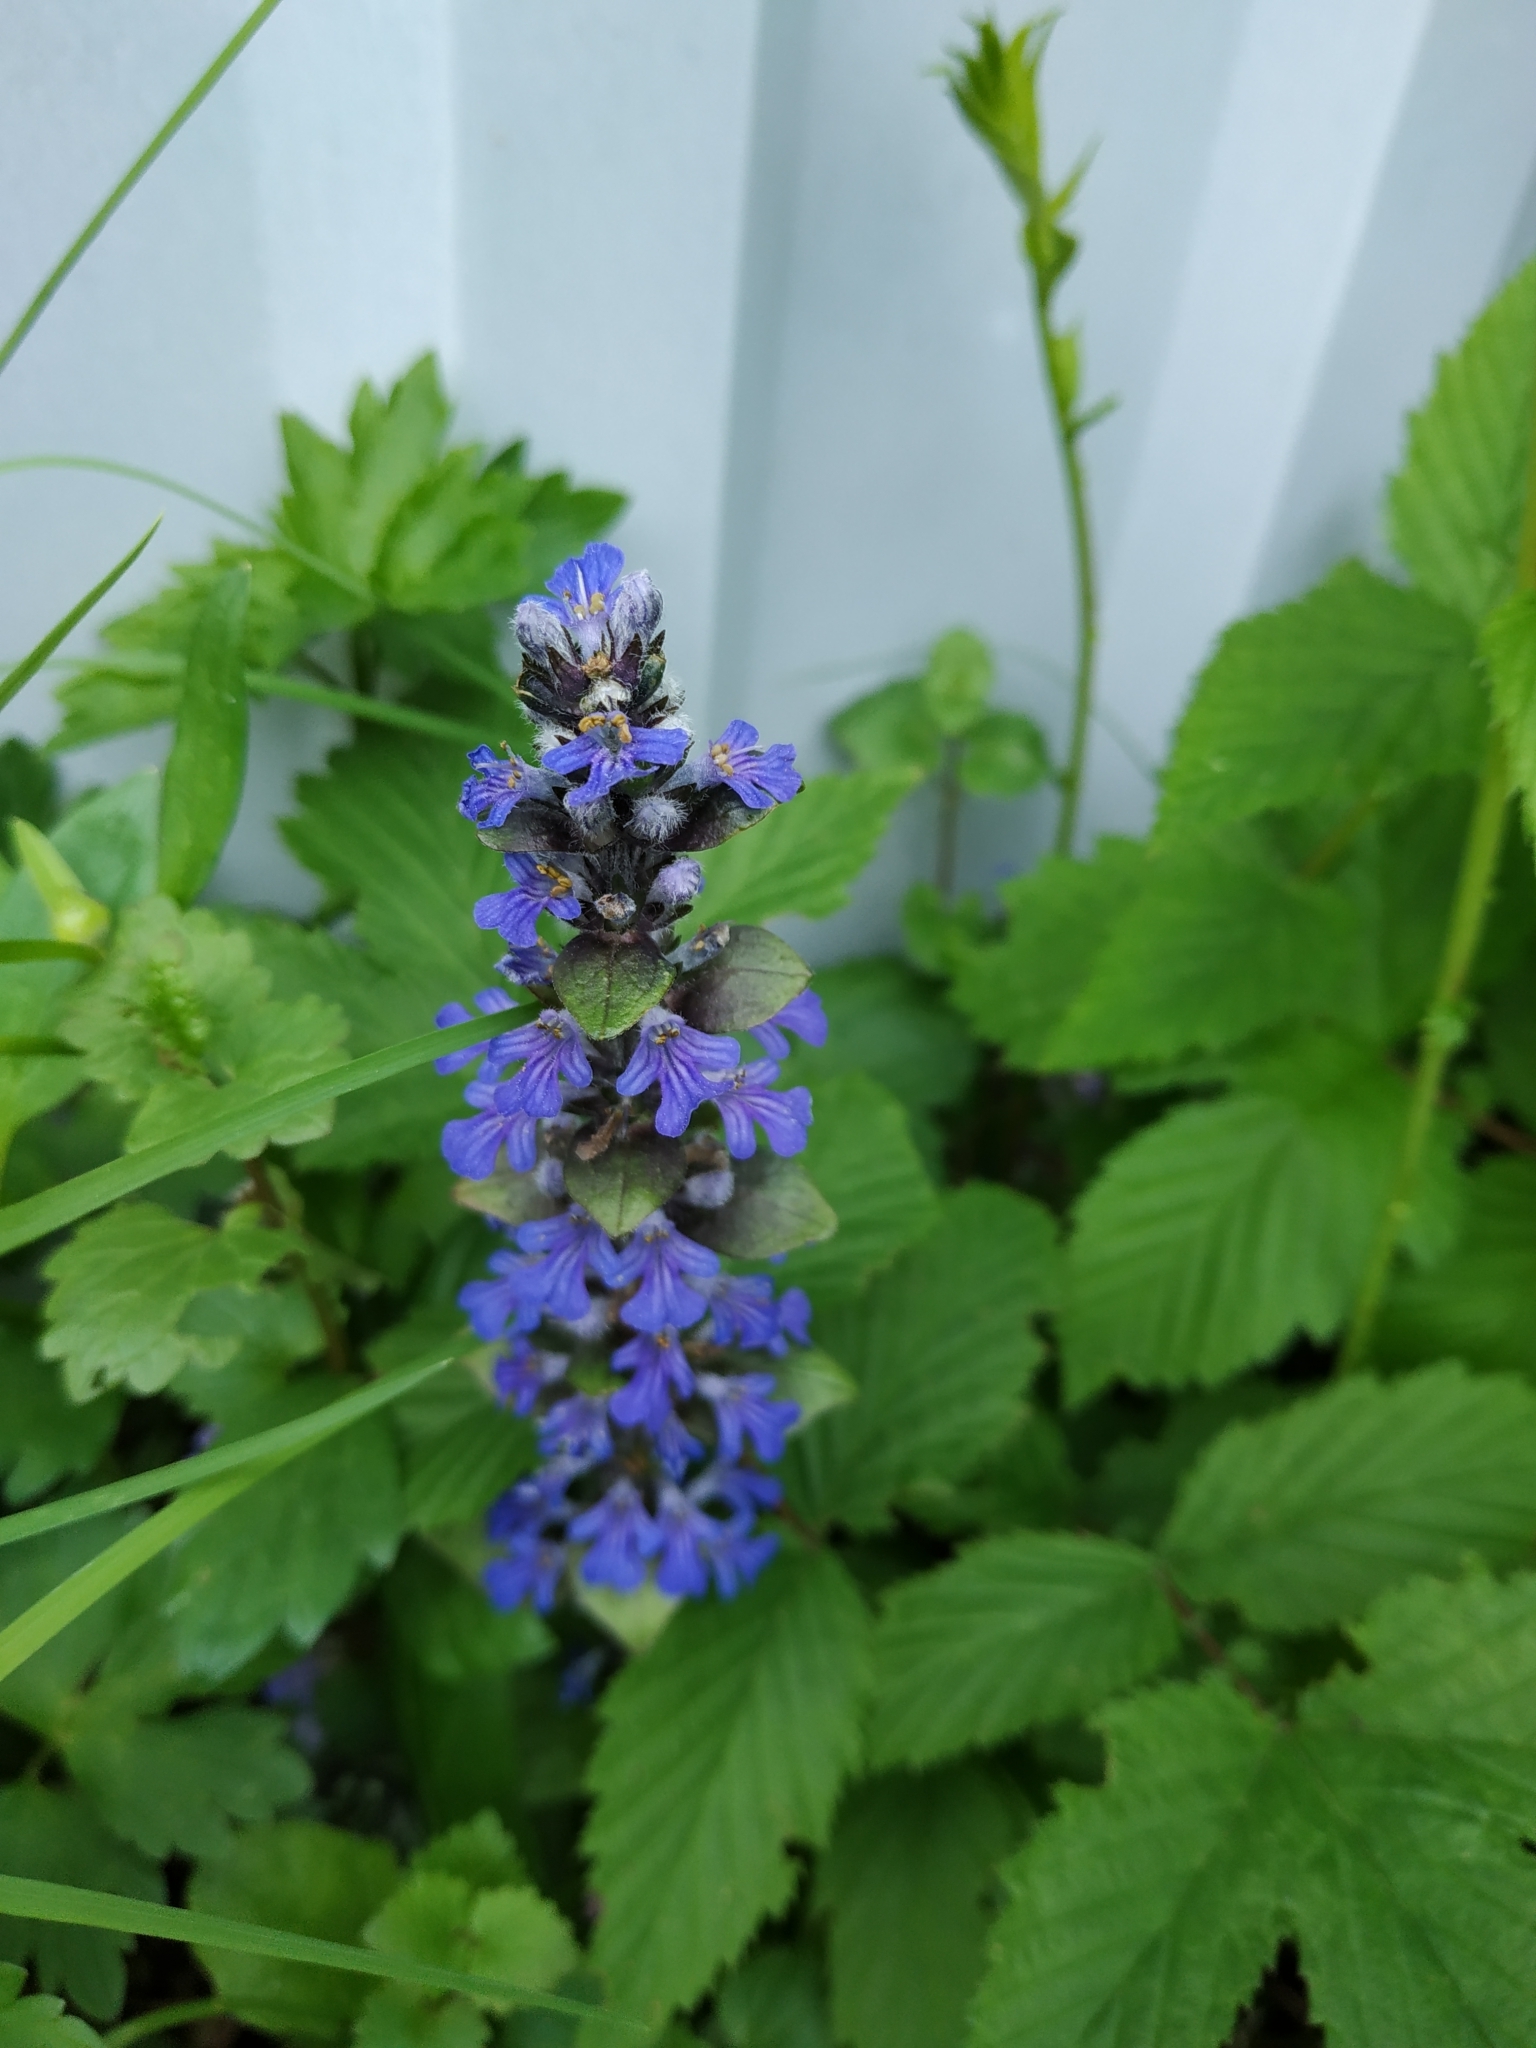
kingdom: Plantae
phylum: Tracheophyta
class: Magnoliopsida
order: Lamiales
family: Lamiaceae
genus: Ajuga
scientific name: Ajuga reptans
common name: Bugle
